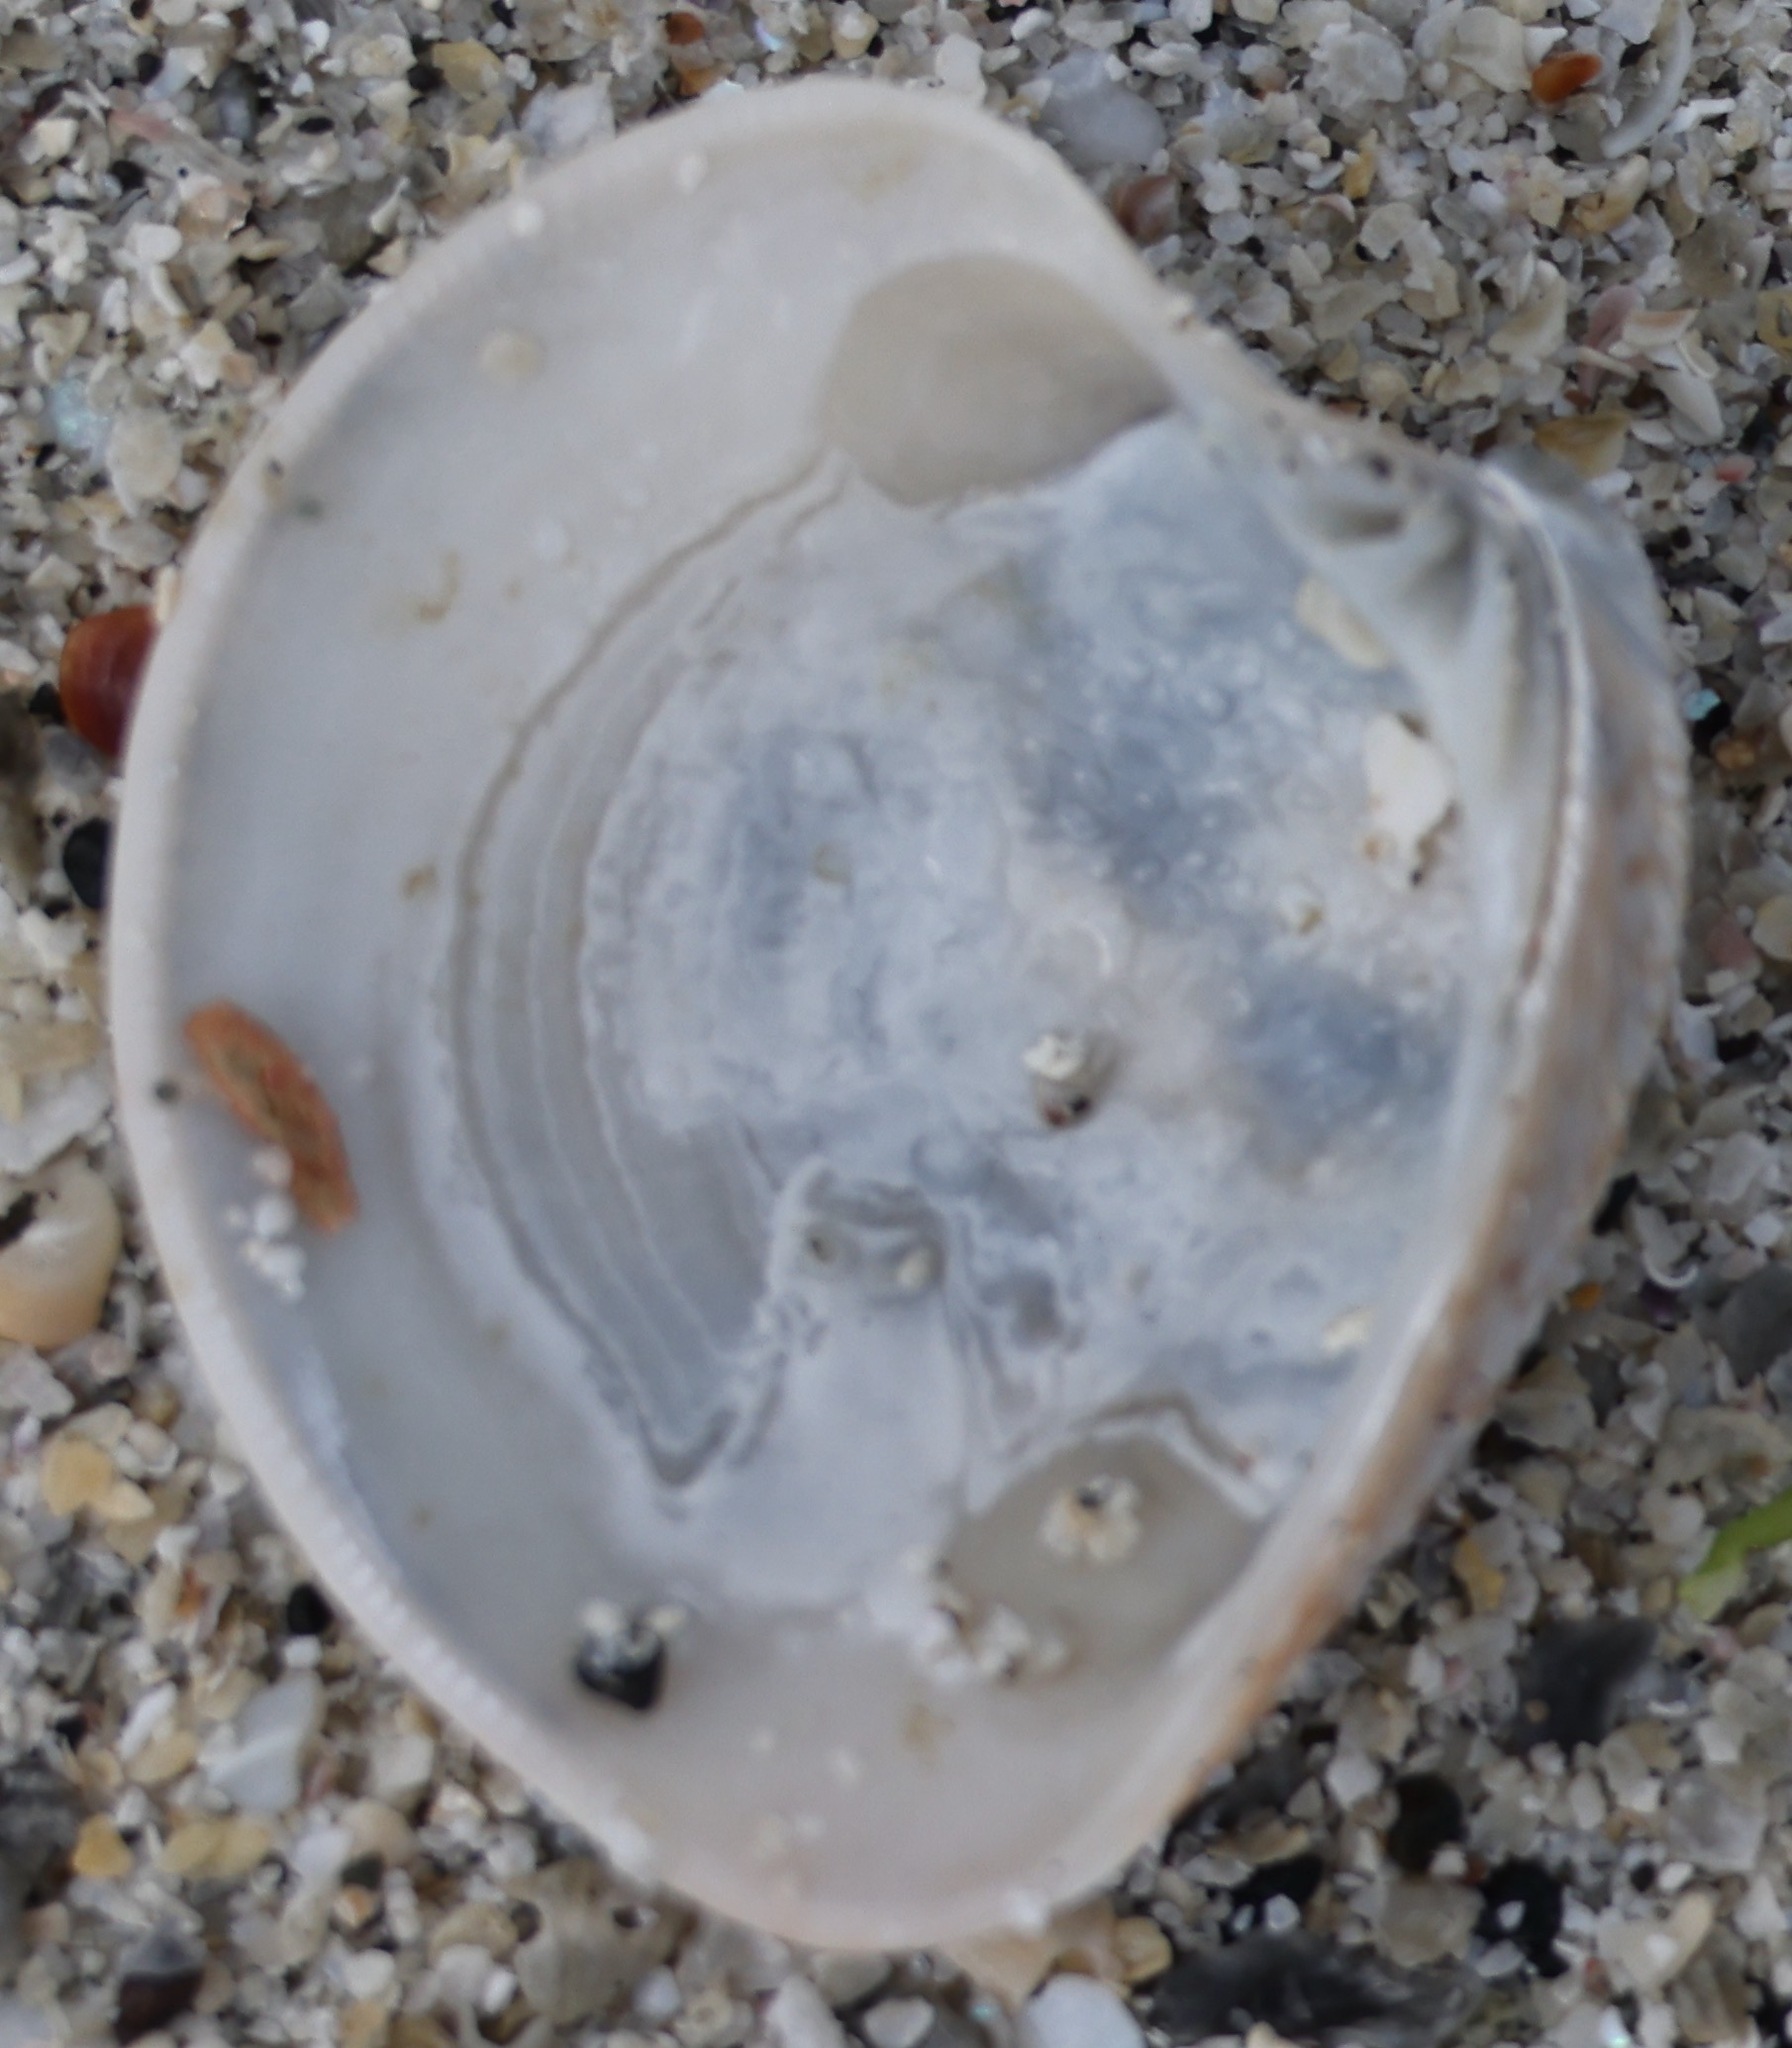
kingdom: Animalia
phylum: Mollusca
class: Bivalvia
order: Venerida
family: Veneridae
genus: Chamelea
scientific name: Chamelea striatula
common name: Striped venus
